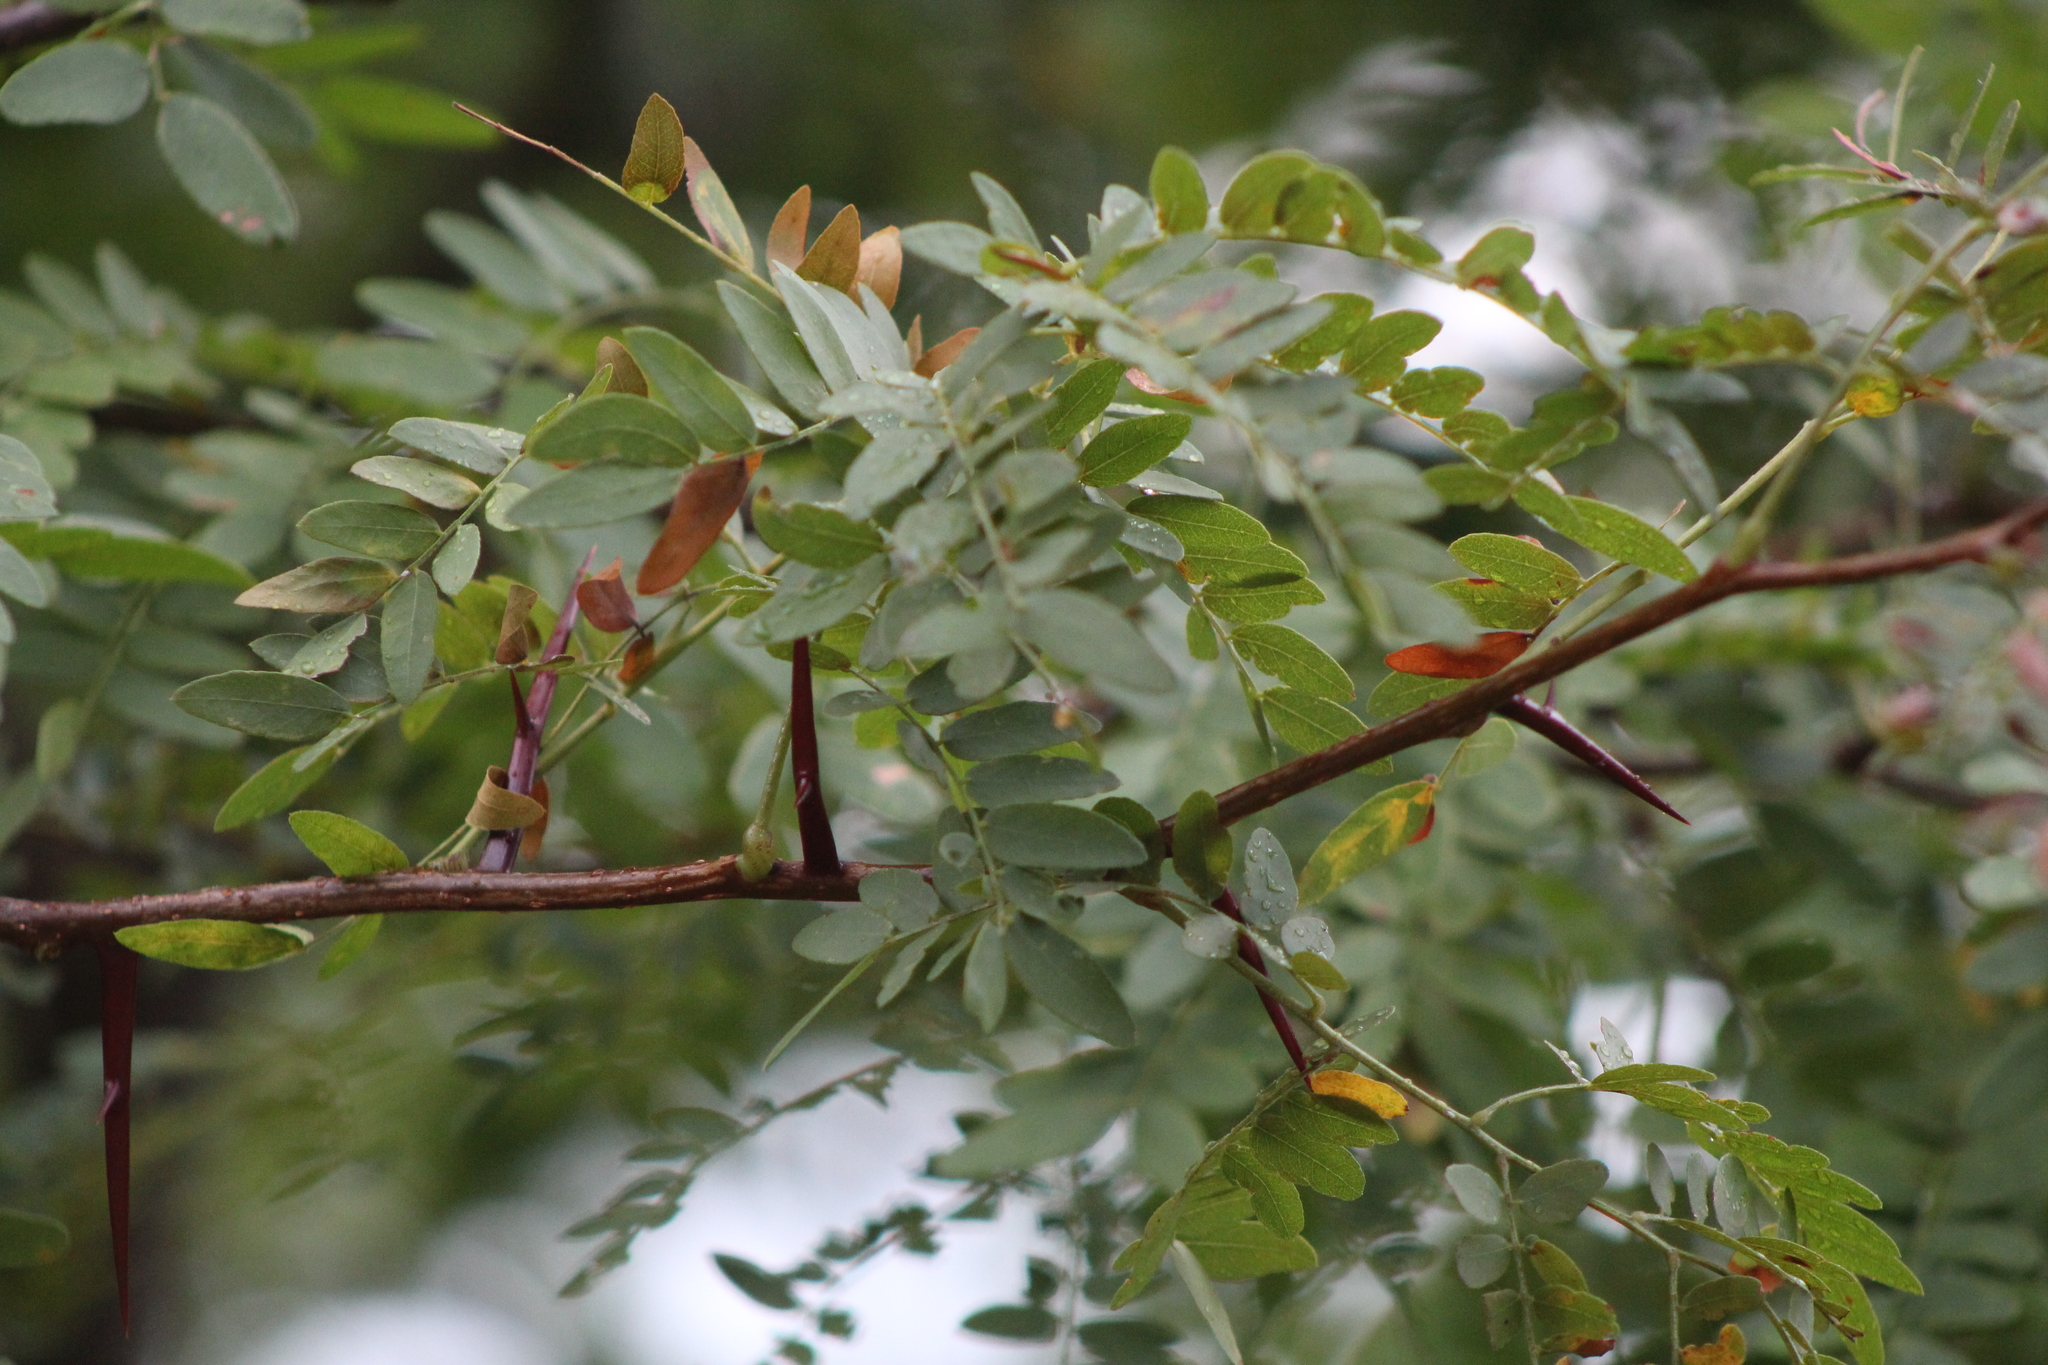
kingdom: Plantae
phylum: Tracheophyta
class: Magnoliopsida
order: Fabales
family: Fabaceae
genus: Gleditsia
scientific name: Gleditsia triacanthos
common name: Common honeylocust
